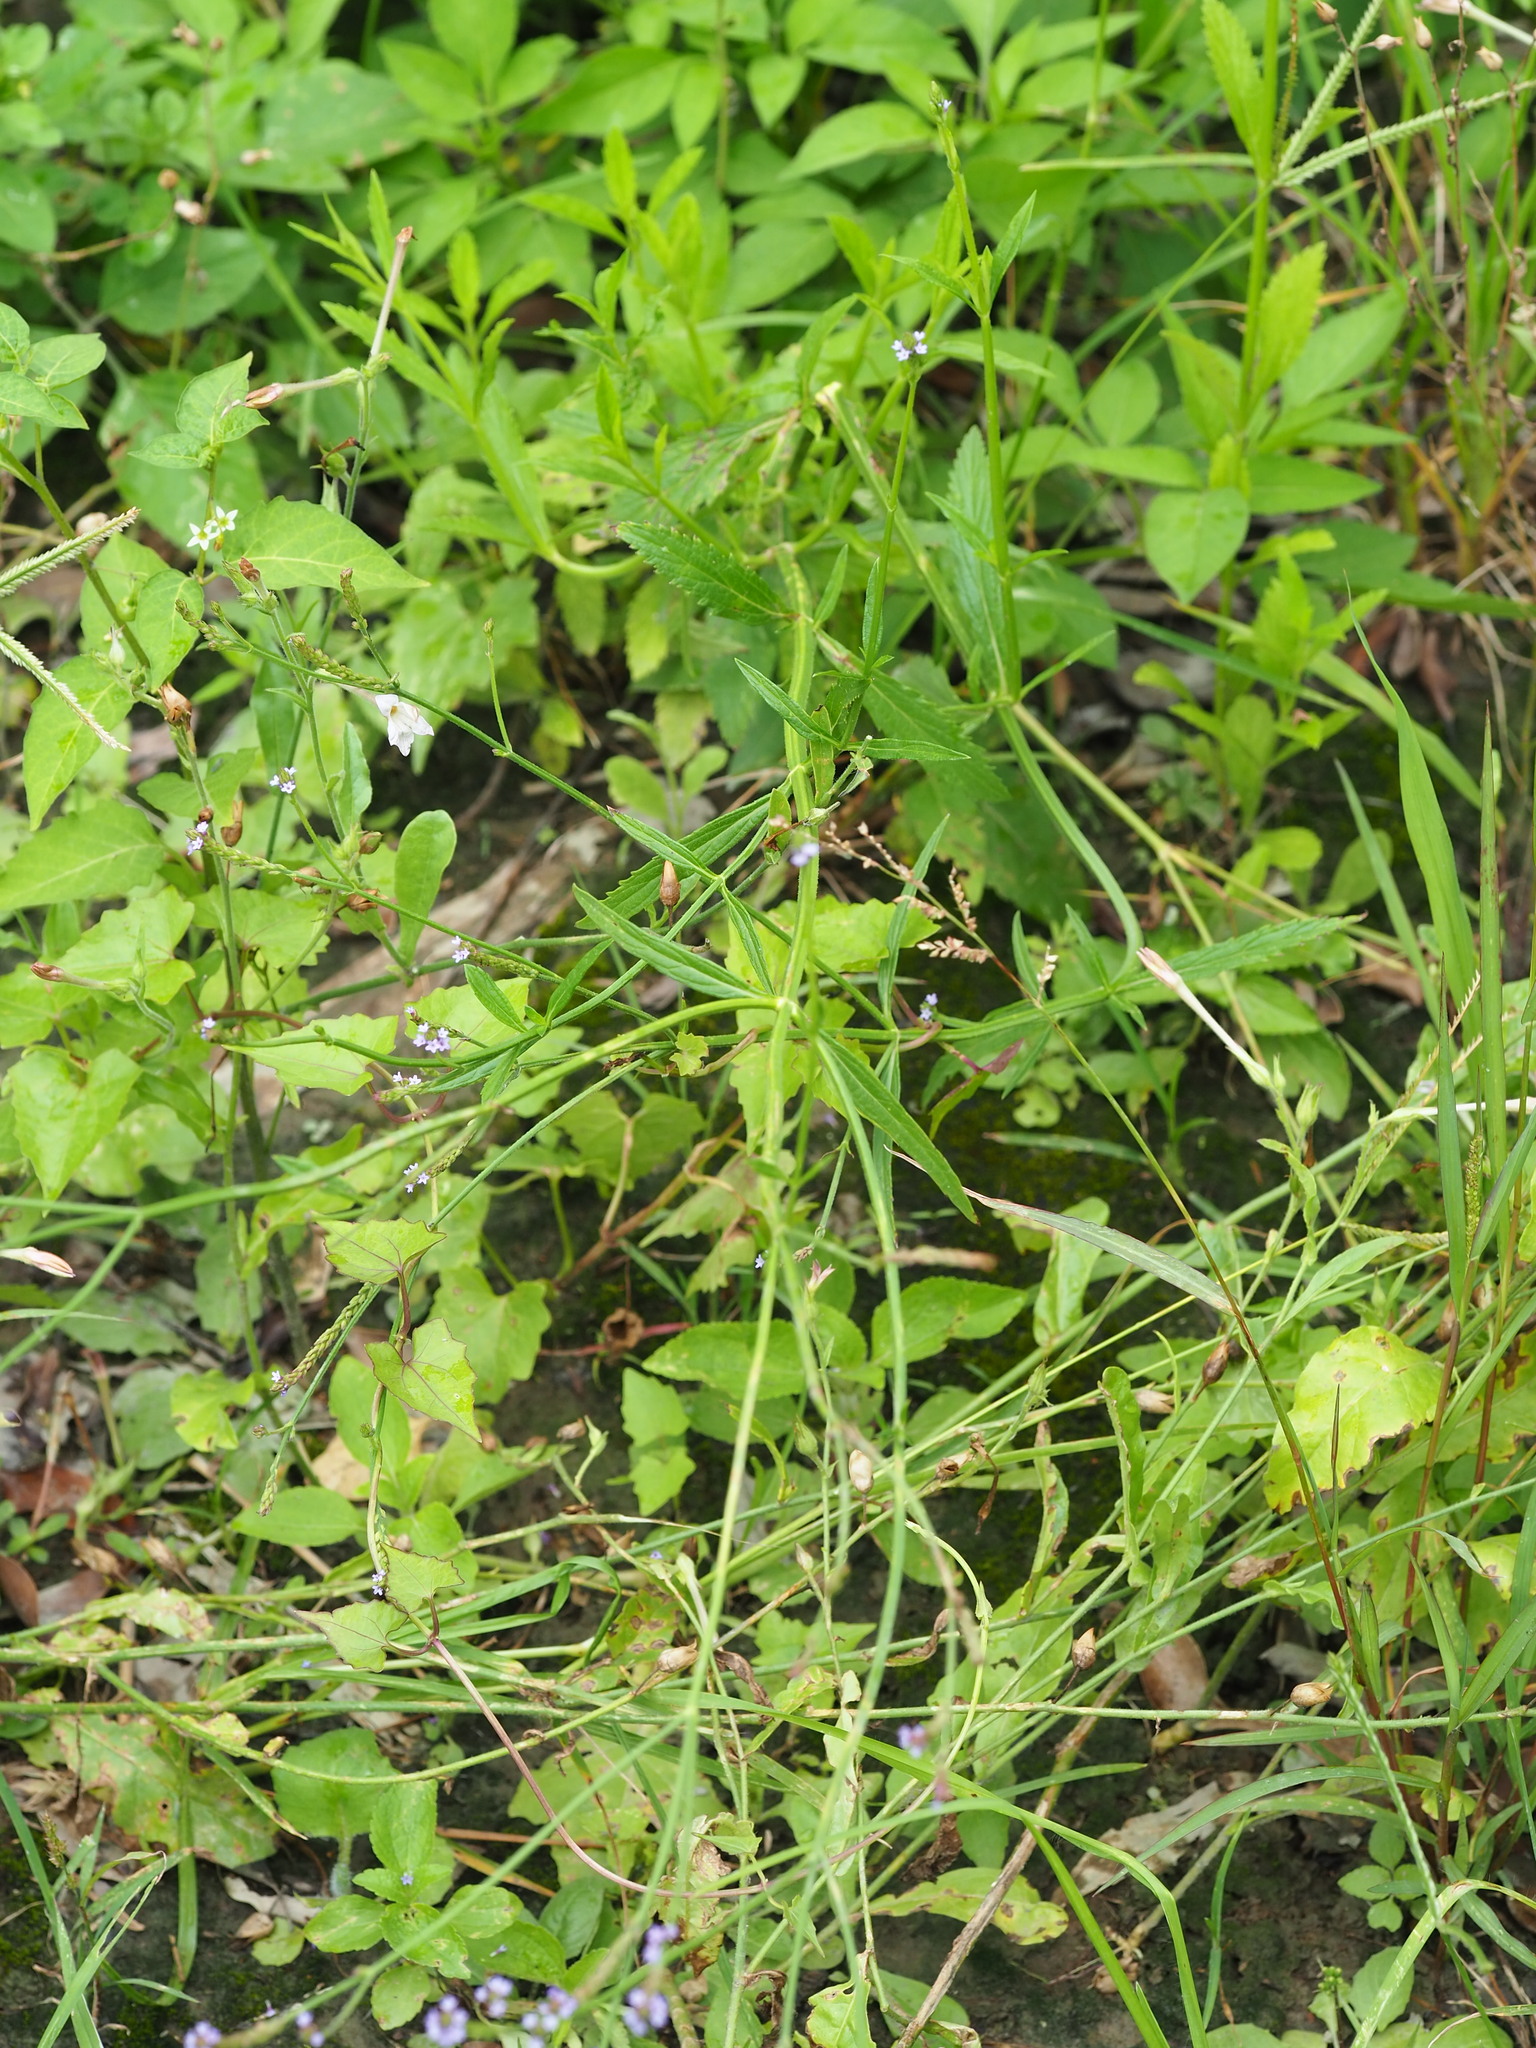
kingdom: Plantae
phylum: Tracheophyta
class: Magnoliopsida
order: Lamiales
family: Verbenaceae
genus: Verbena
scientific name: Verbena litoralis
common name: Seashore vervain
